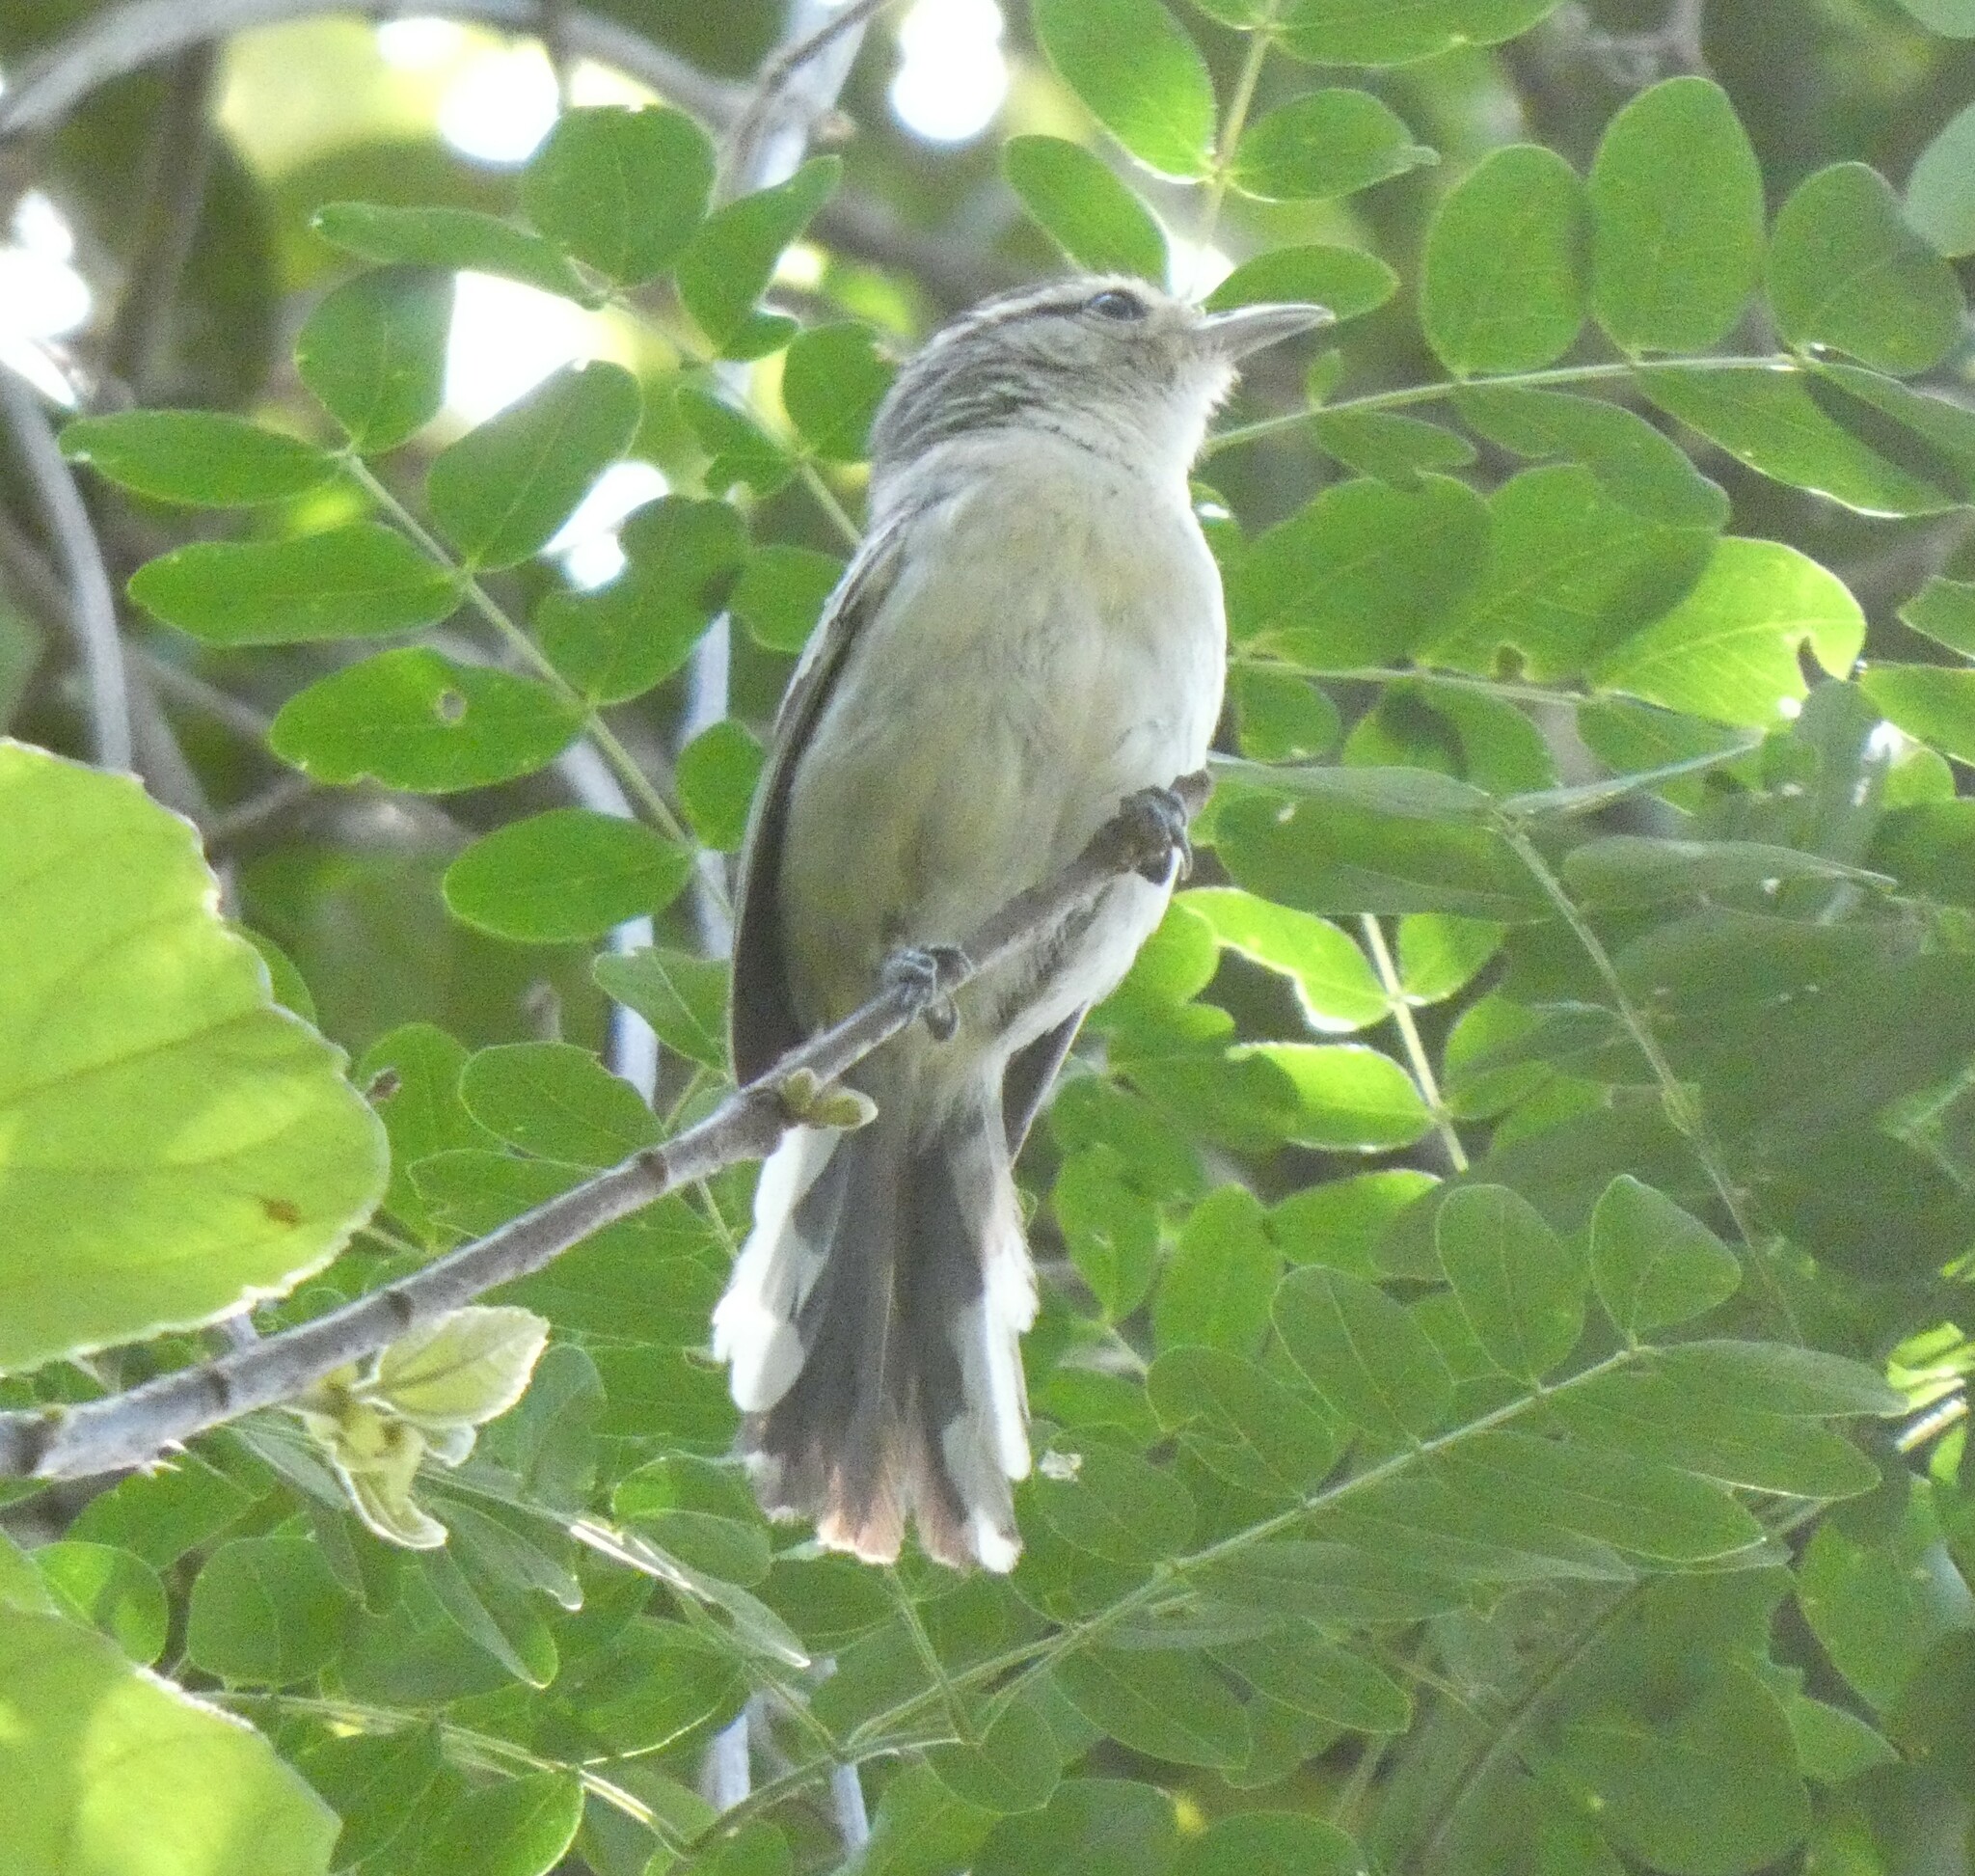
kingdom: Animalia
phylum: Chordata
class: Aves
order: Passeriformes
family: Thamnophilidae
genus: Herpsilochmus
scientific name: Herpsilochmus atricapillus
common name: Black-capped antwren
